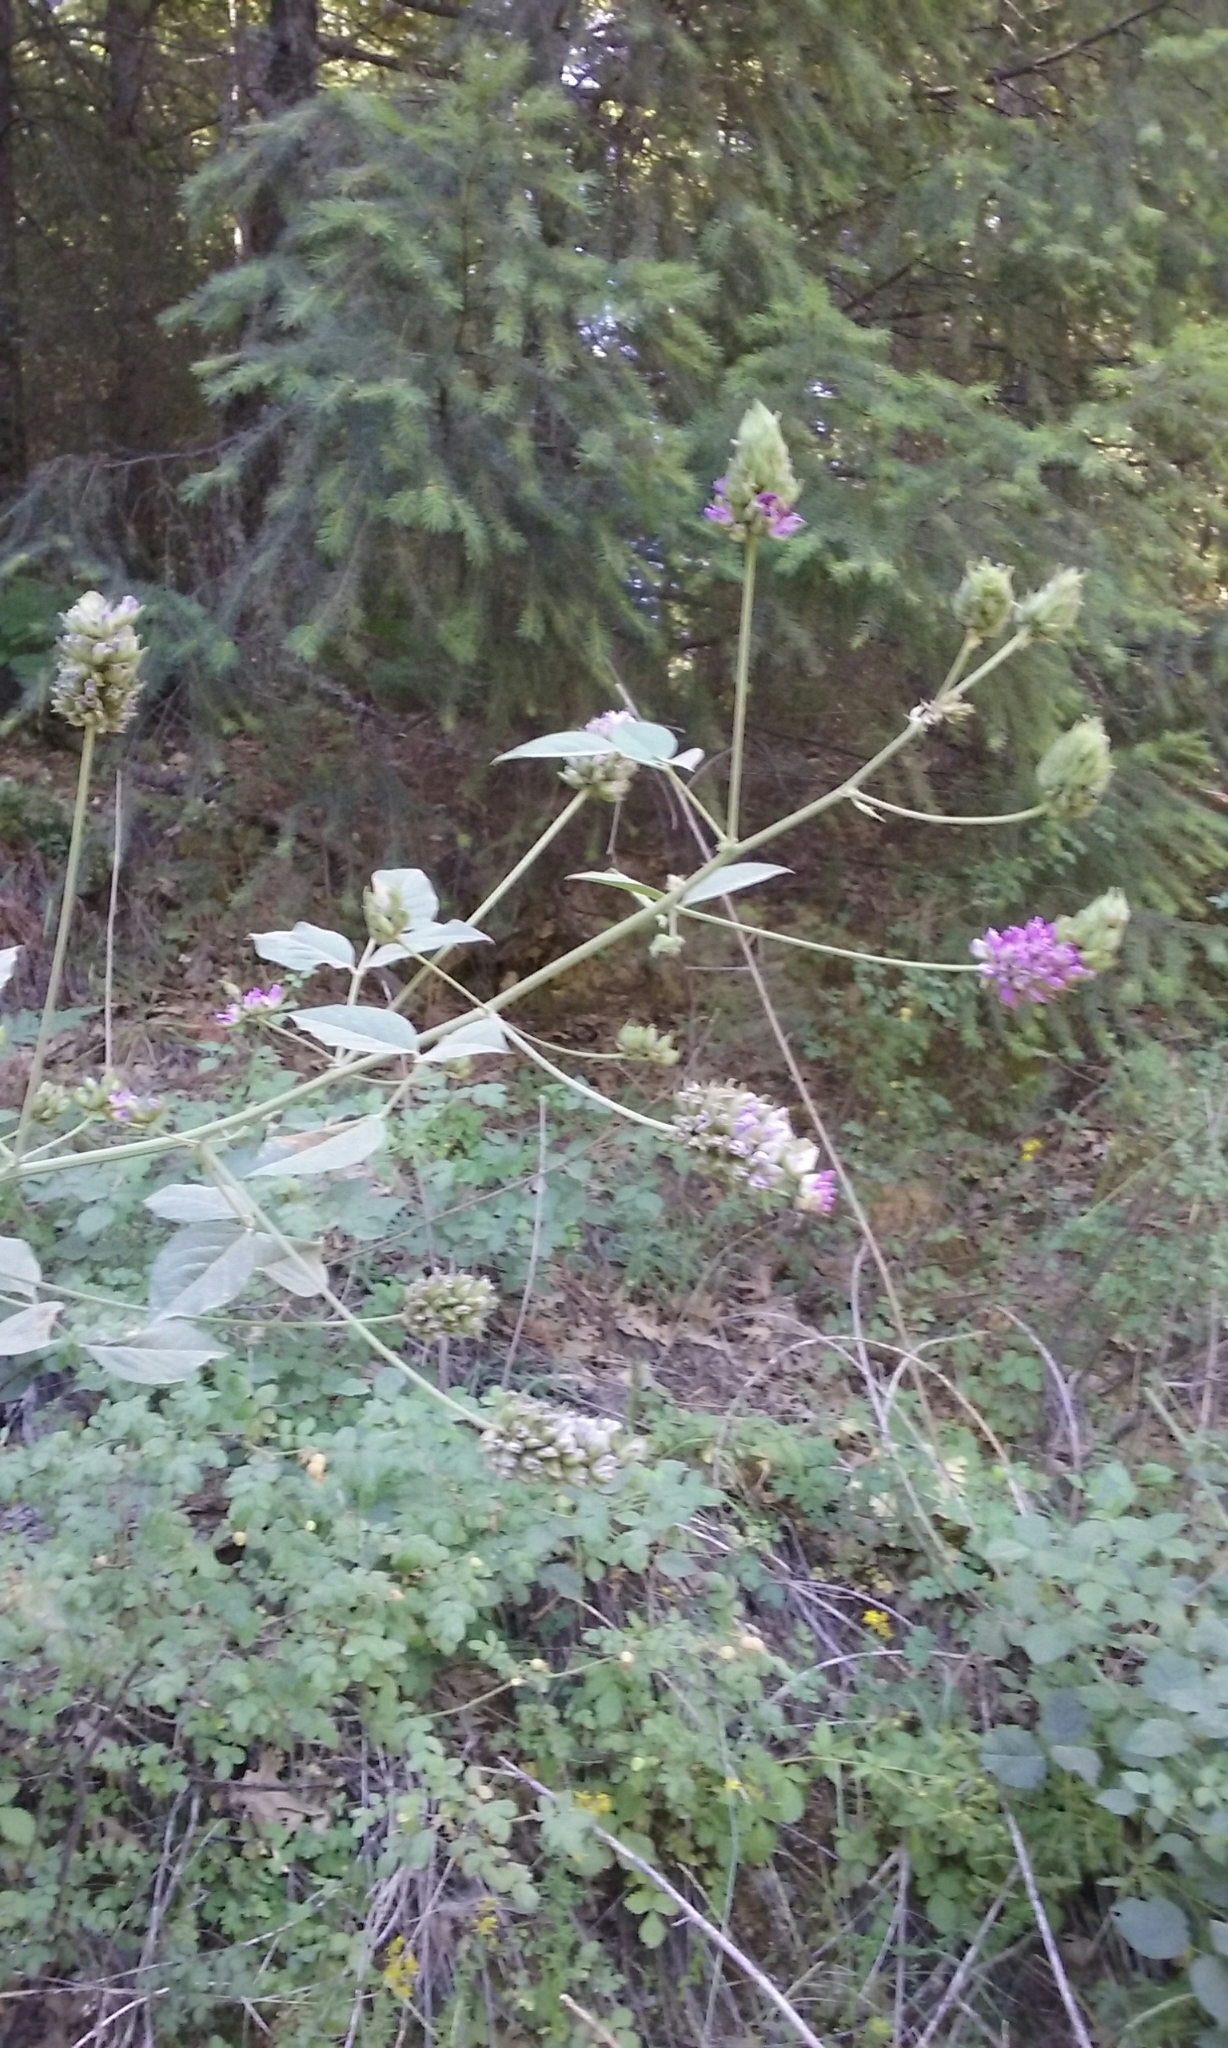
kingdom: Plantae
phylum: Tracheophyta
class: Magnoliopsida
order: Fabales
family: Fabaceae
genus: Hoita
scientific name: Hoita macrostachya
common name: Leatherroot
